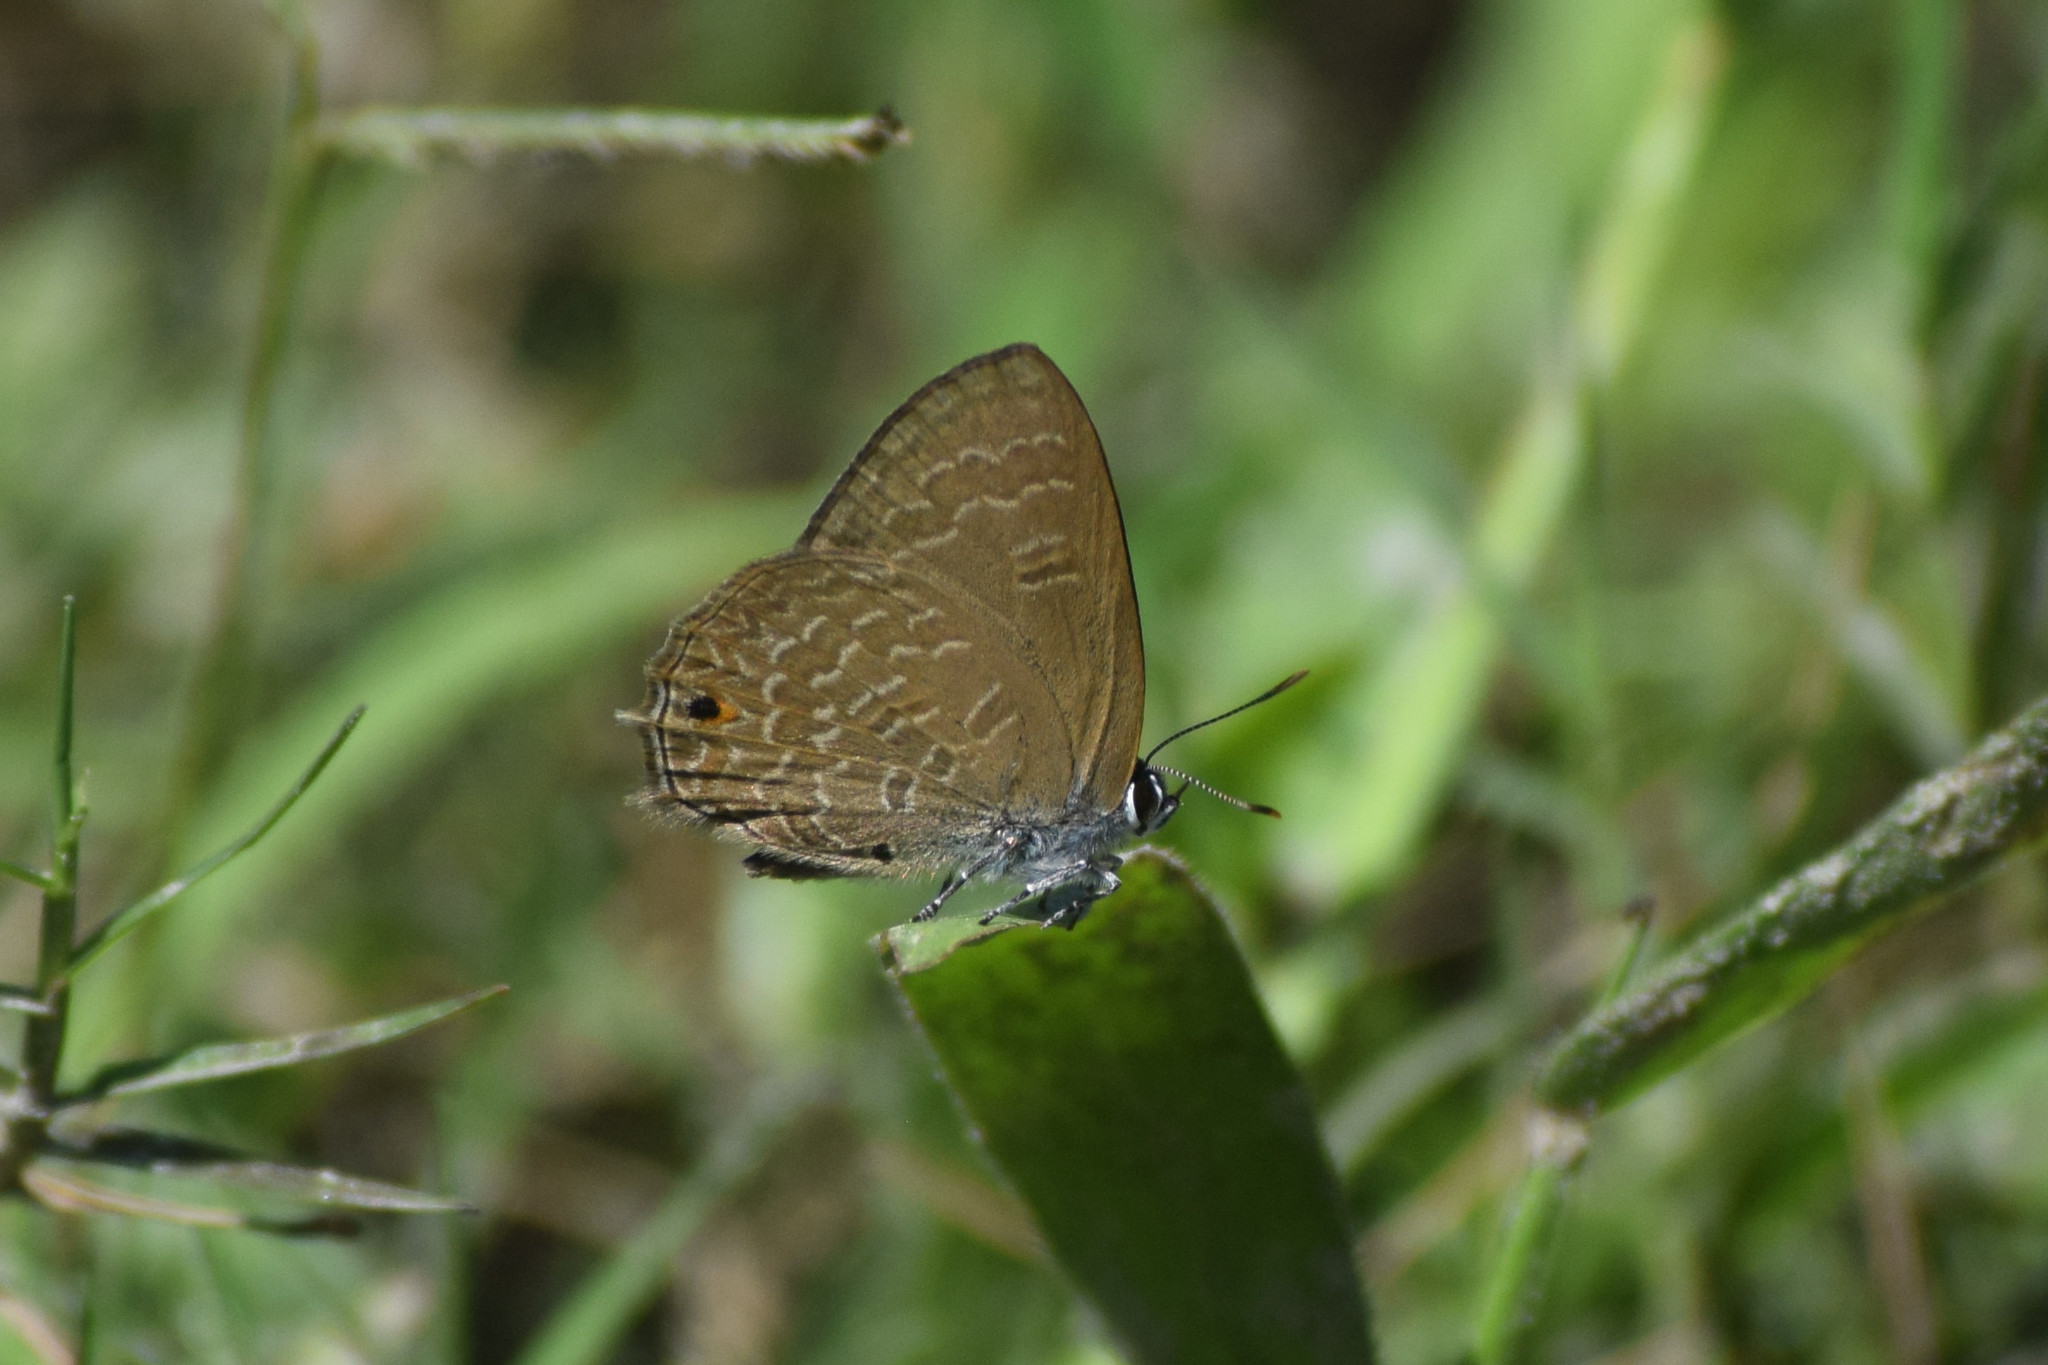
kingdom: Animalia
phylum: Arthropoda
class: Insecta
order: Lepidoptera
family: Lycaenidae
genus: Anthene
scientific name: Anthene emolus
